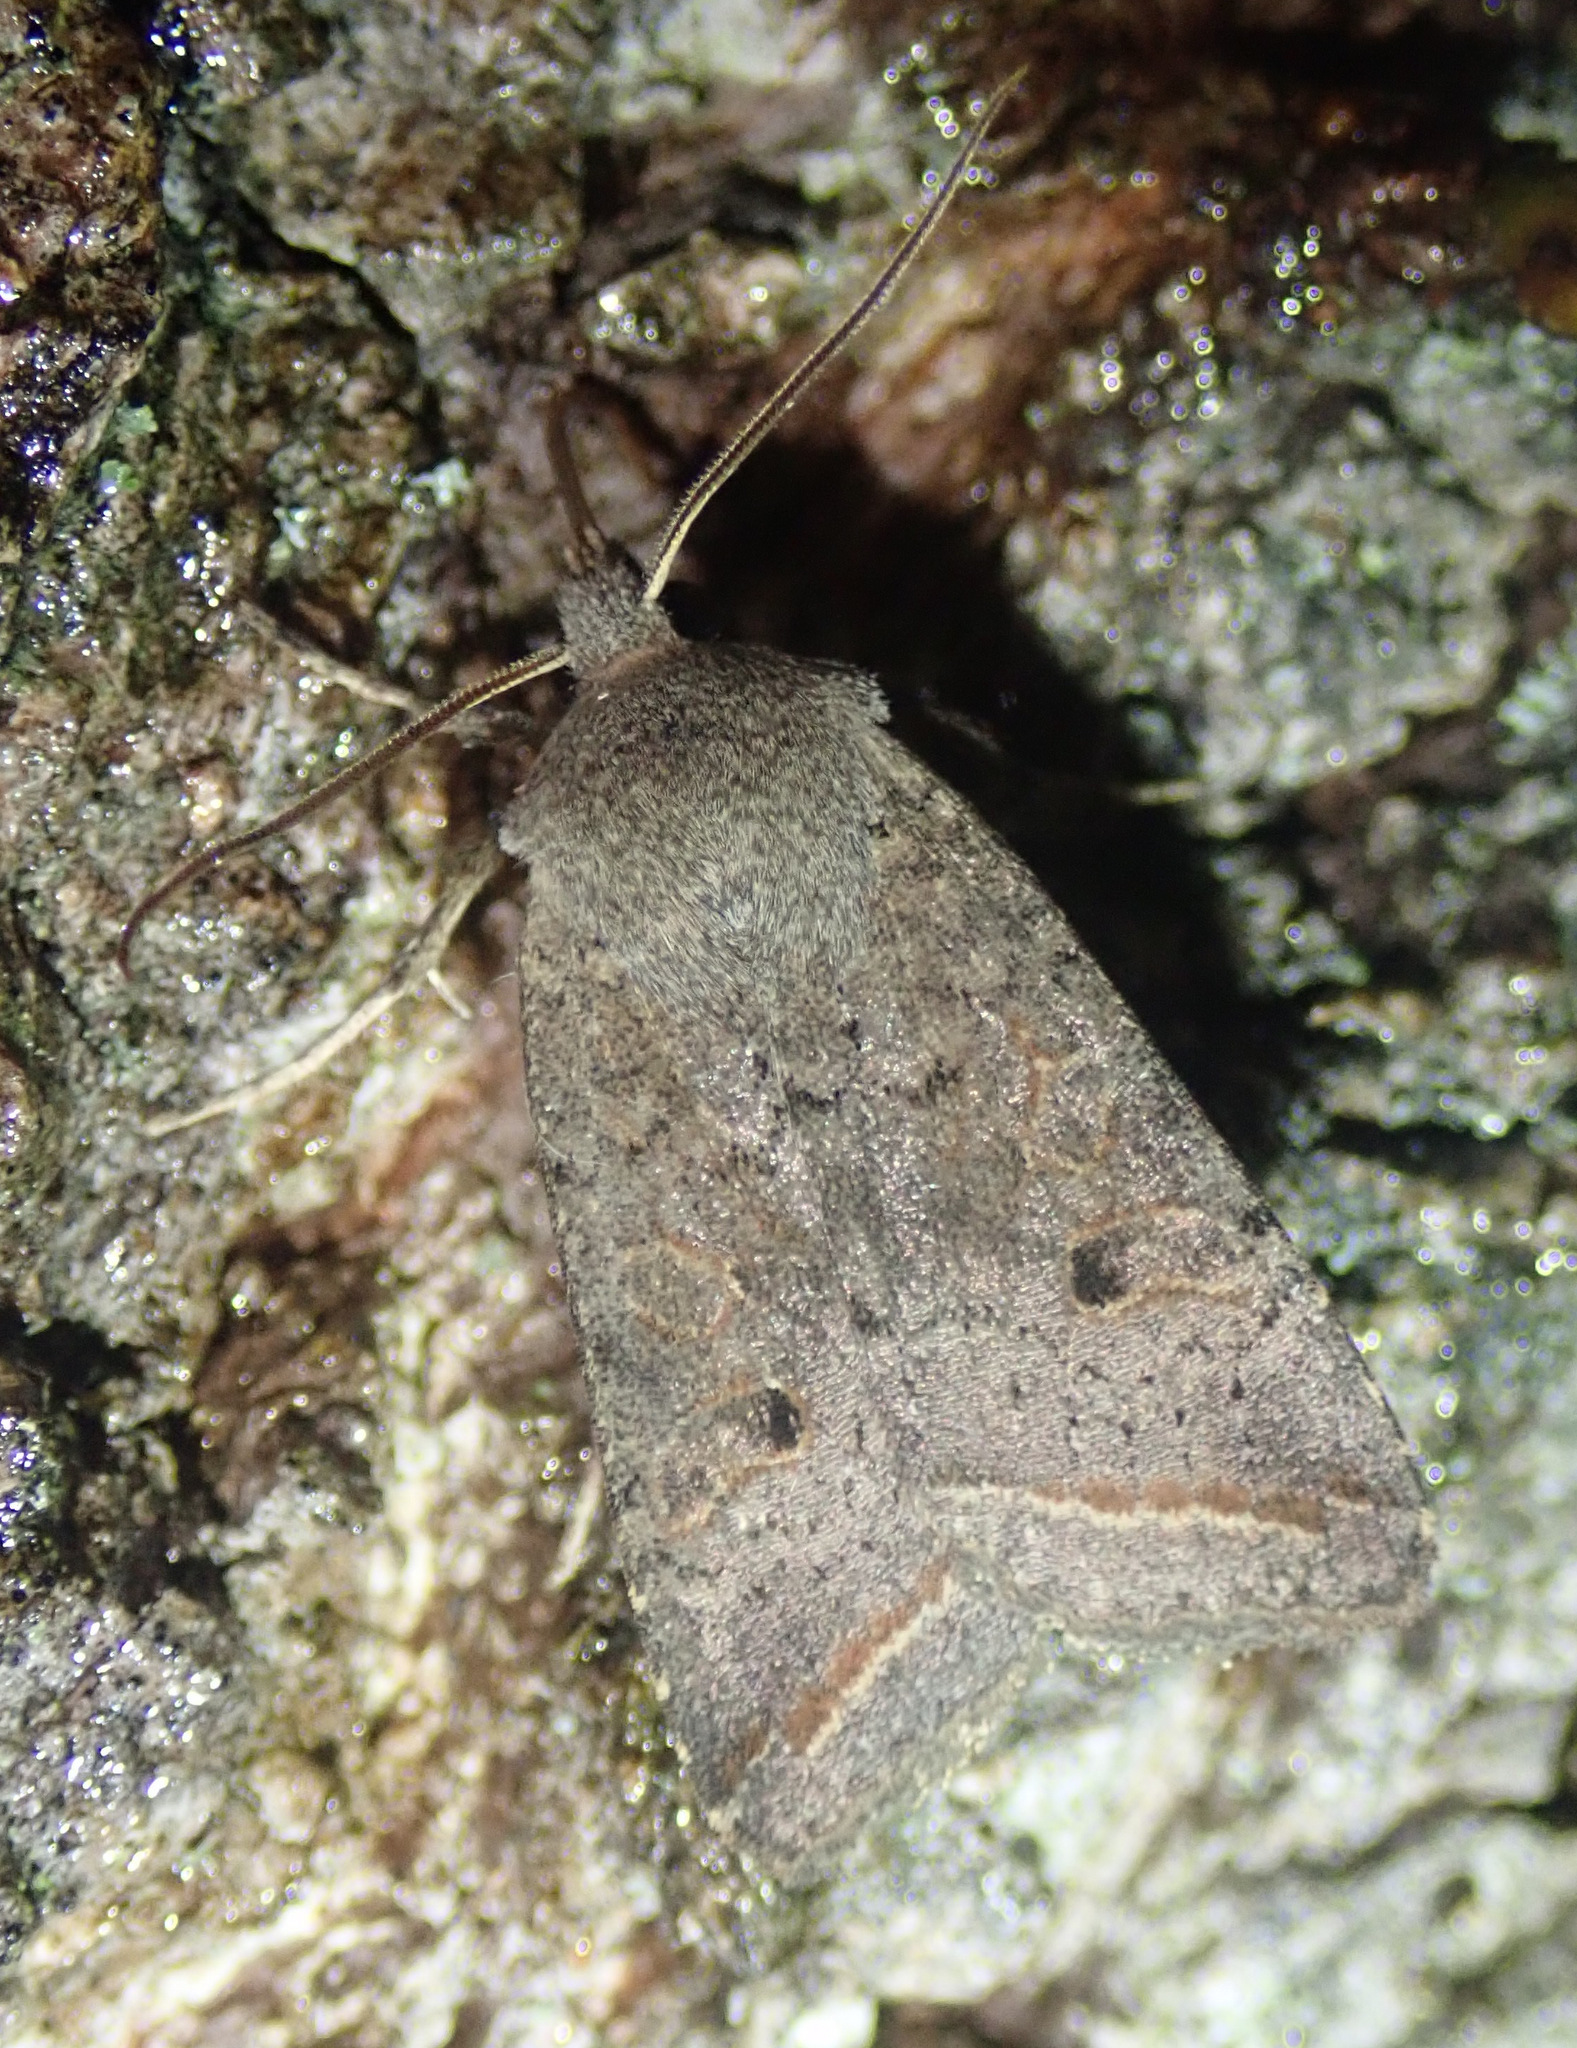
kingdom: Animalia
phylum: Arthropoda
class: Insecta
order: Lepidoptera
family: Noctuidae
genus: Agrochola
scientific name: Agrochola lota
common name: Red-line quaker
